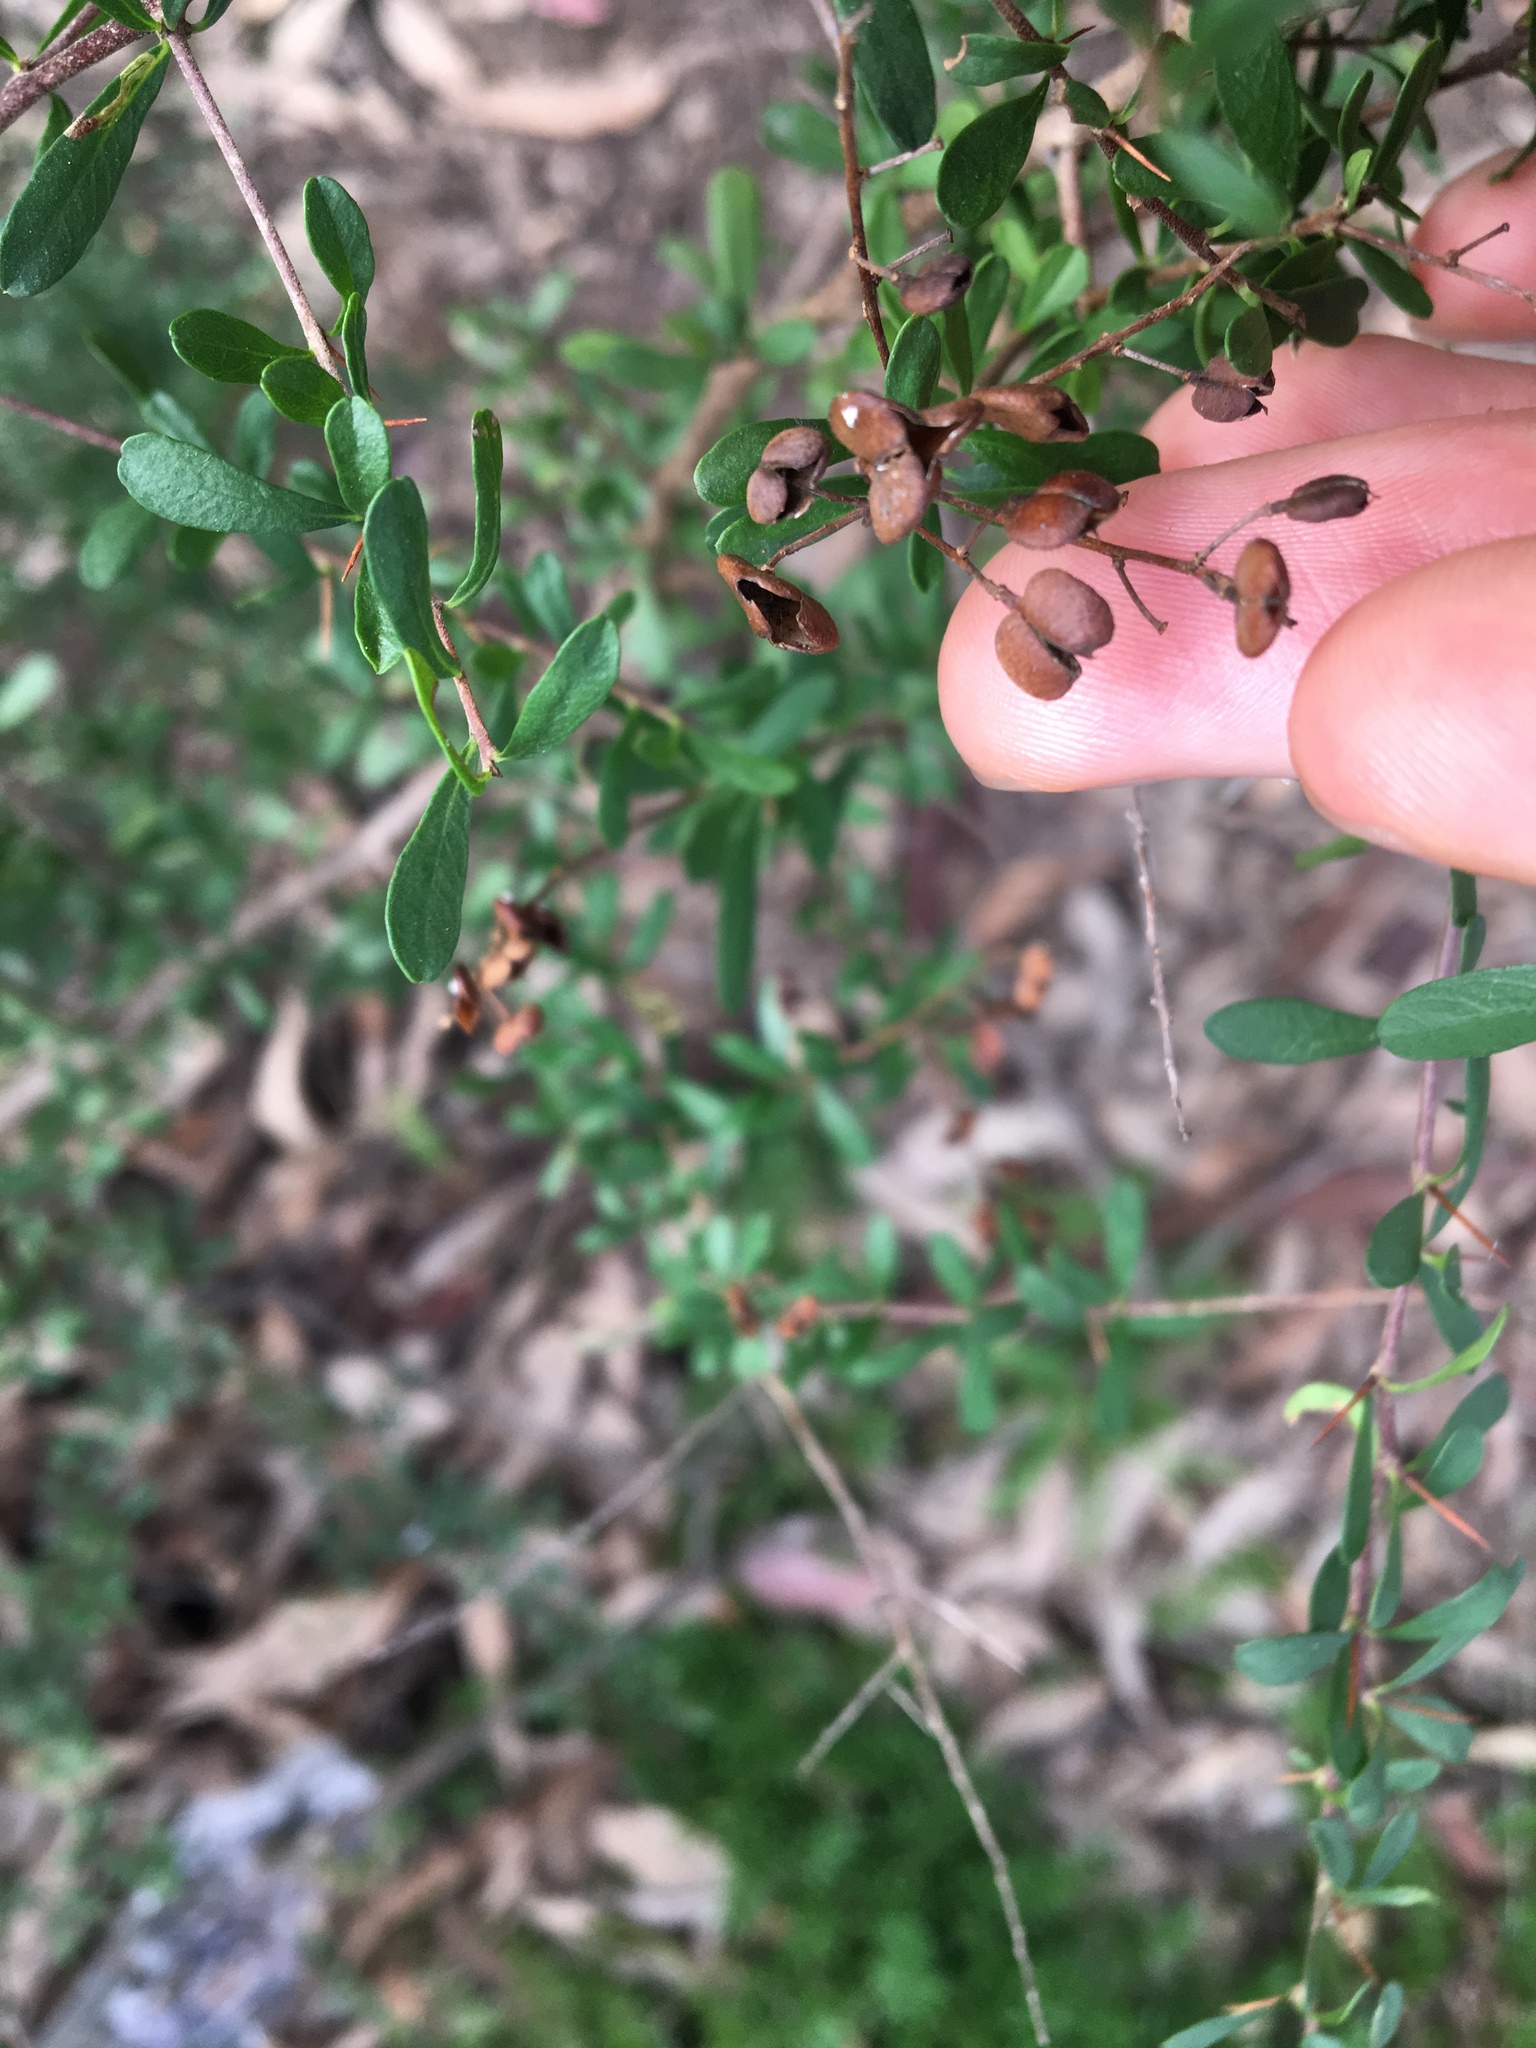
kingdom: Plantae
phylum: Tracheophyta
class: Magnoliopsida
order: Apiales
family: Pittosporaceae
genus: Bursaria
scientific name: Bursaria spinosa
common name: Australian blackthorn
